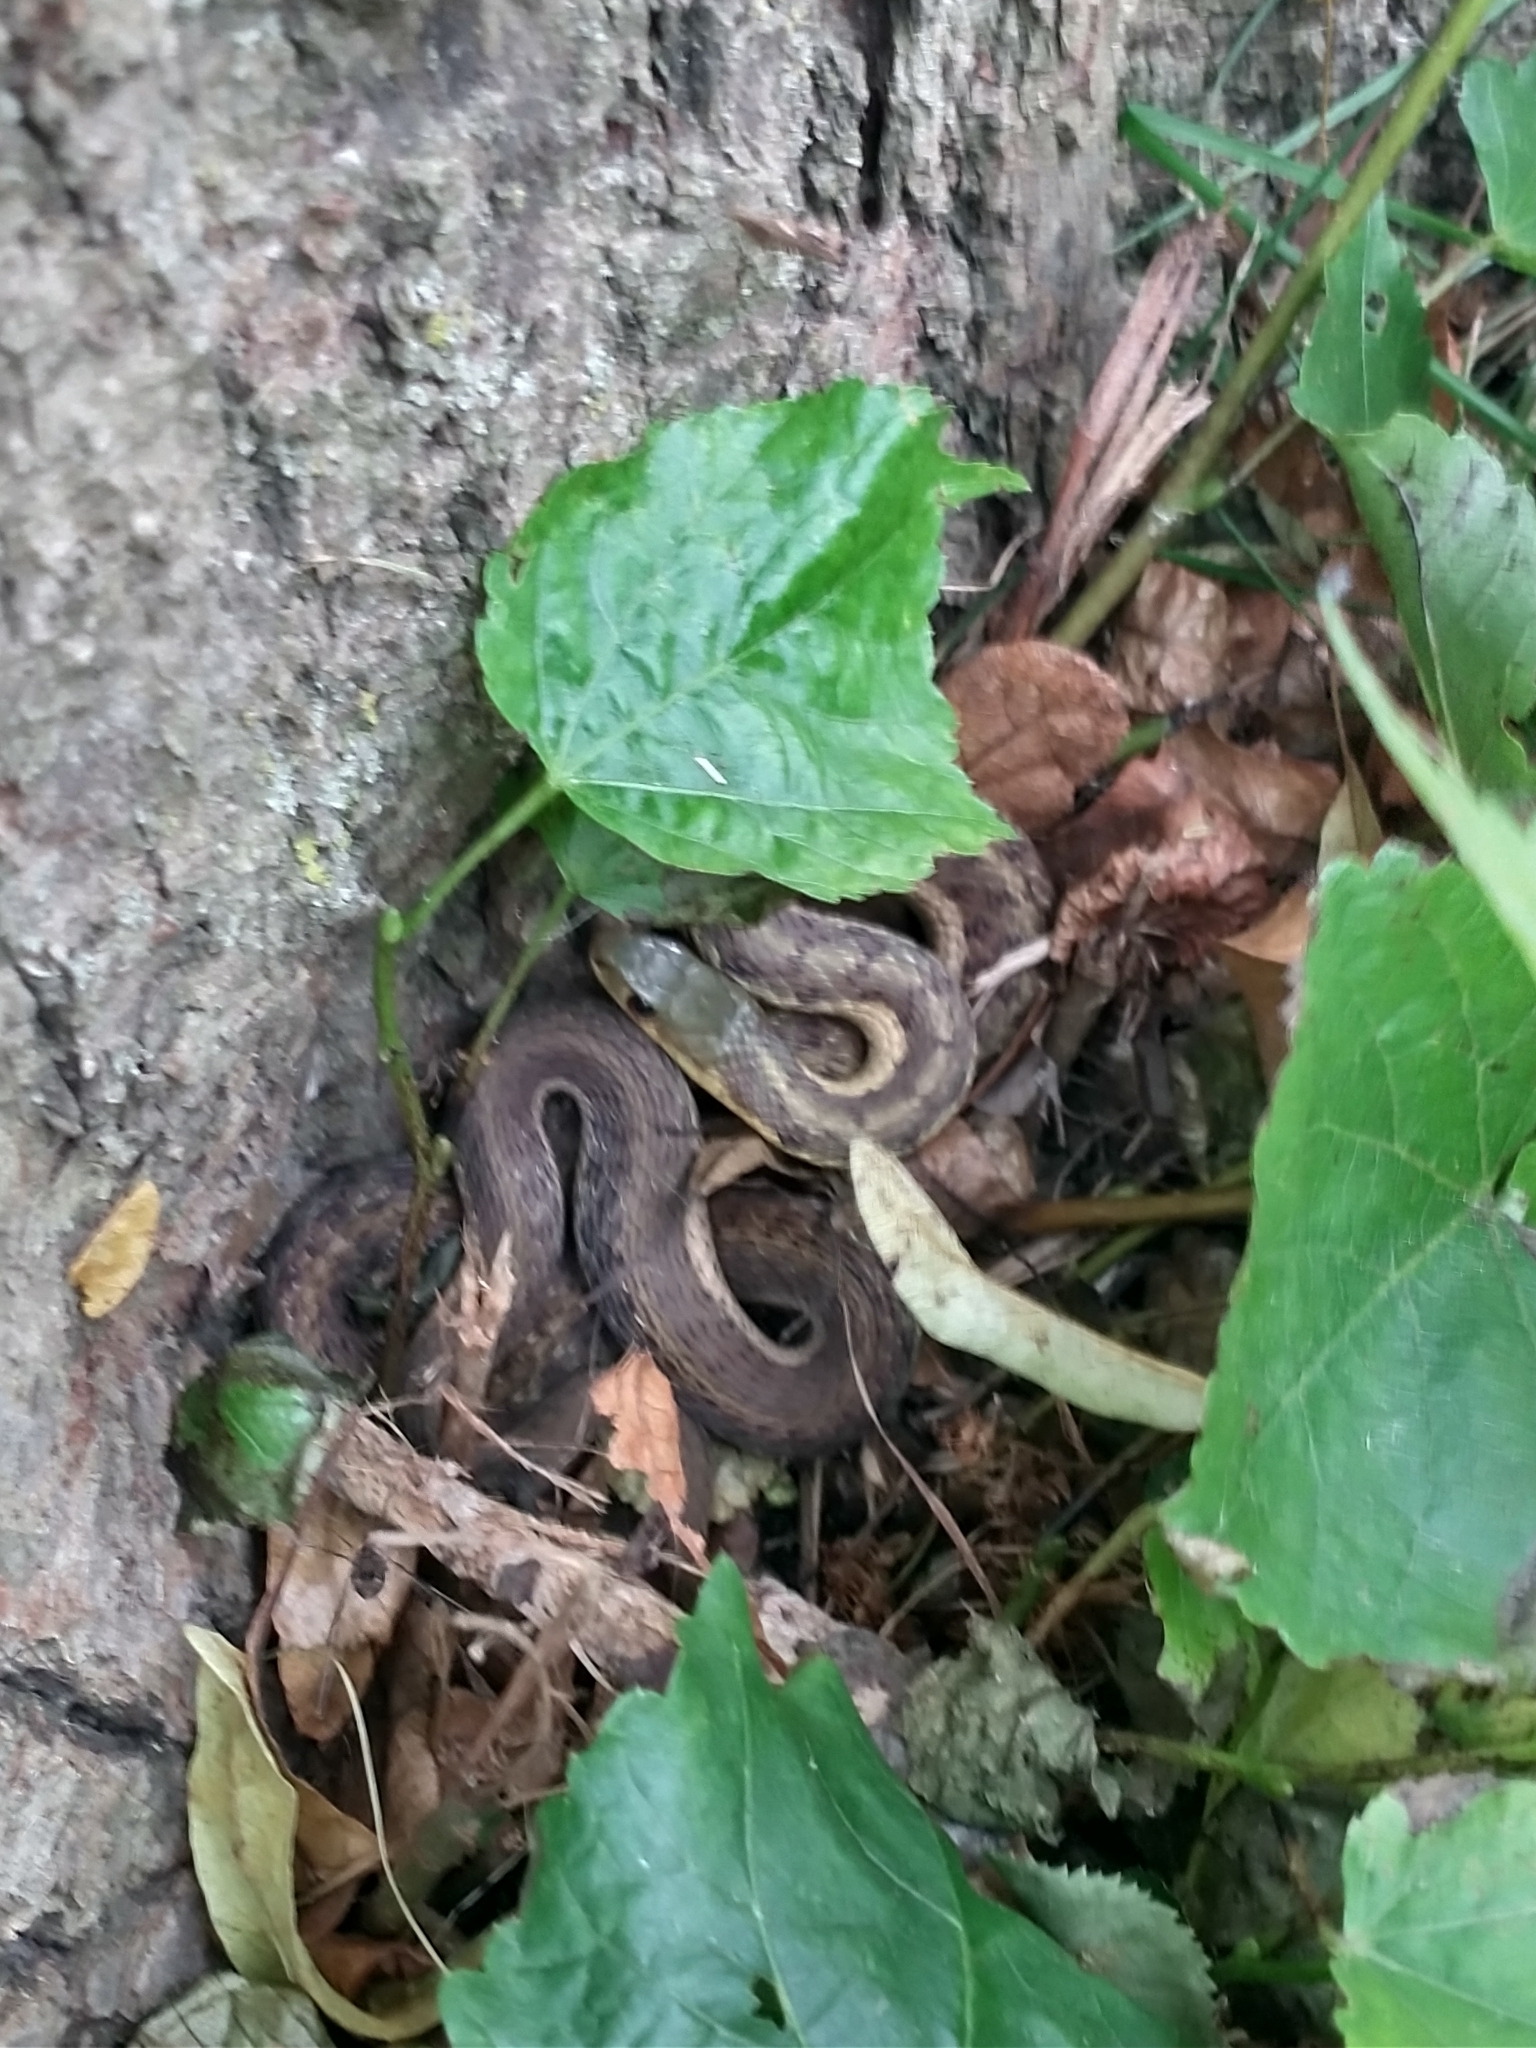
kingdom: Animalia
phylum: Chordata
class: Squamata
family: Colubridae
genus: Thamnophis
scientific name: Thamnophis sirtalis
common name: Common garter snake
